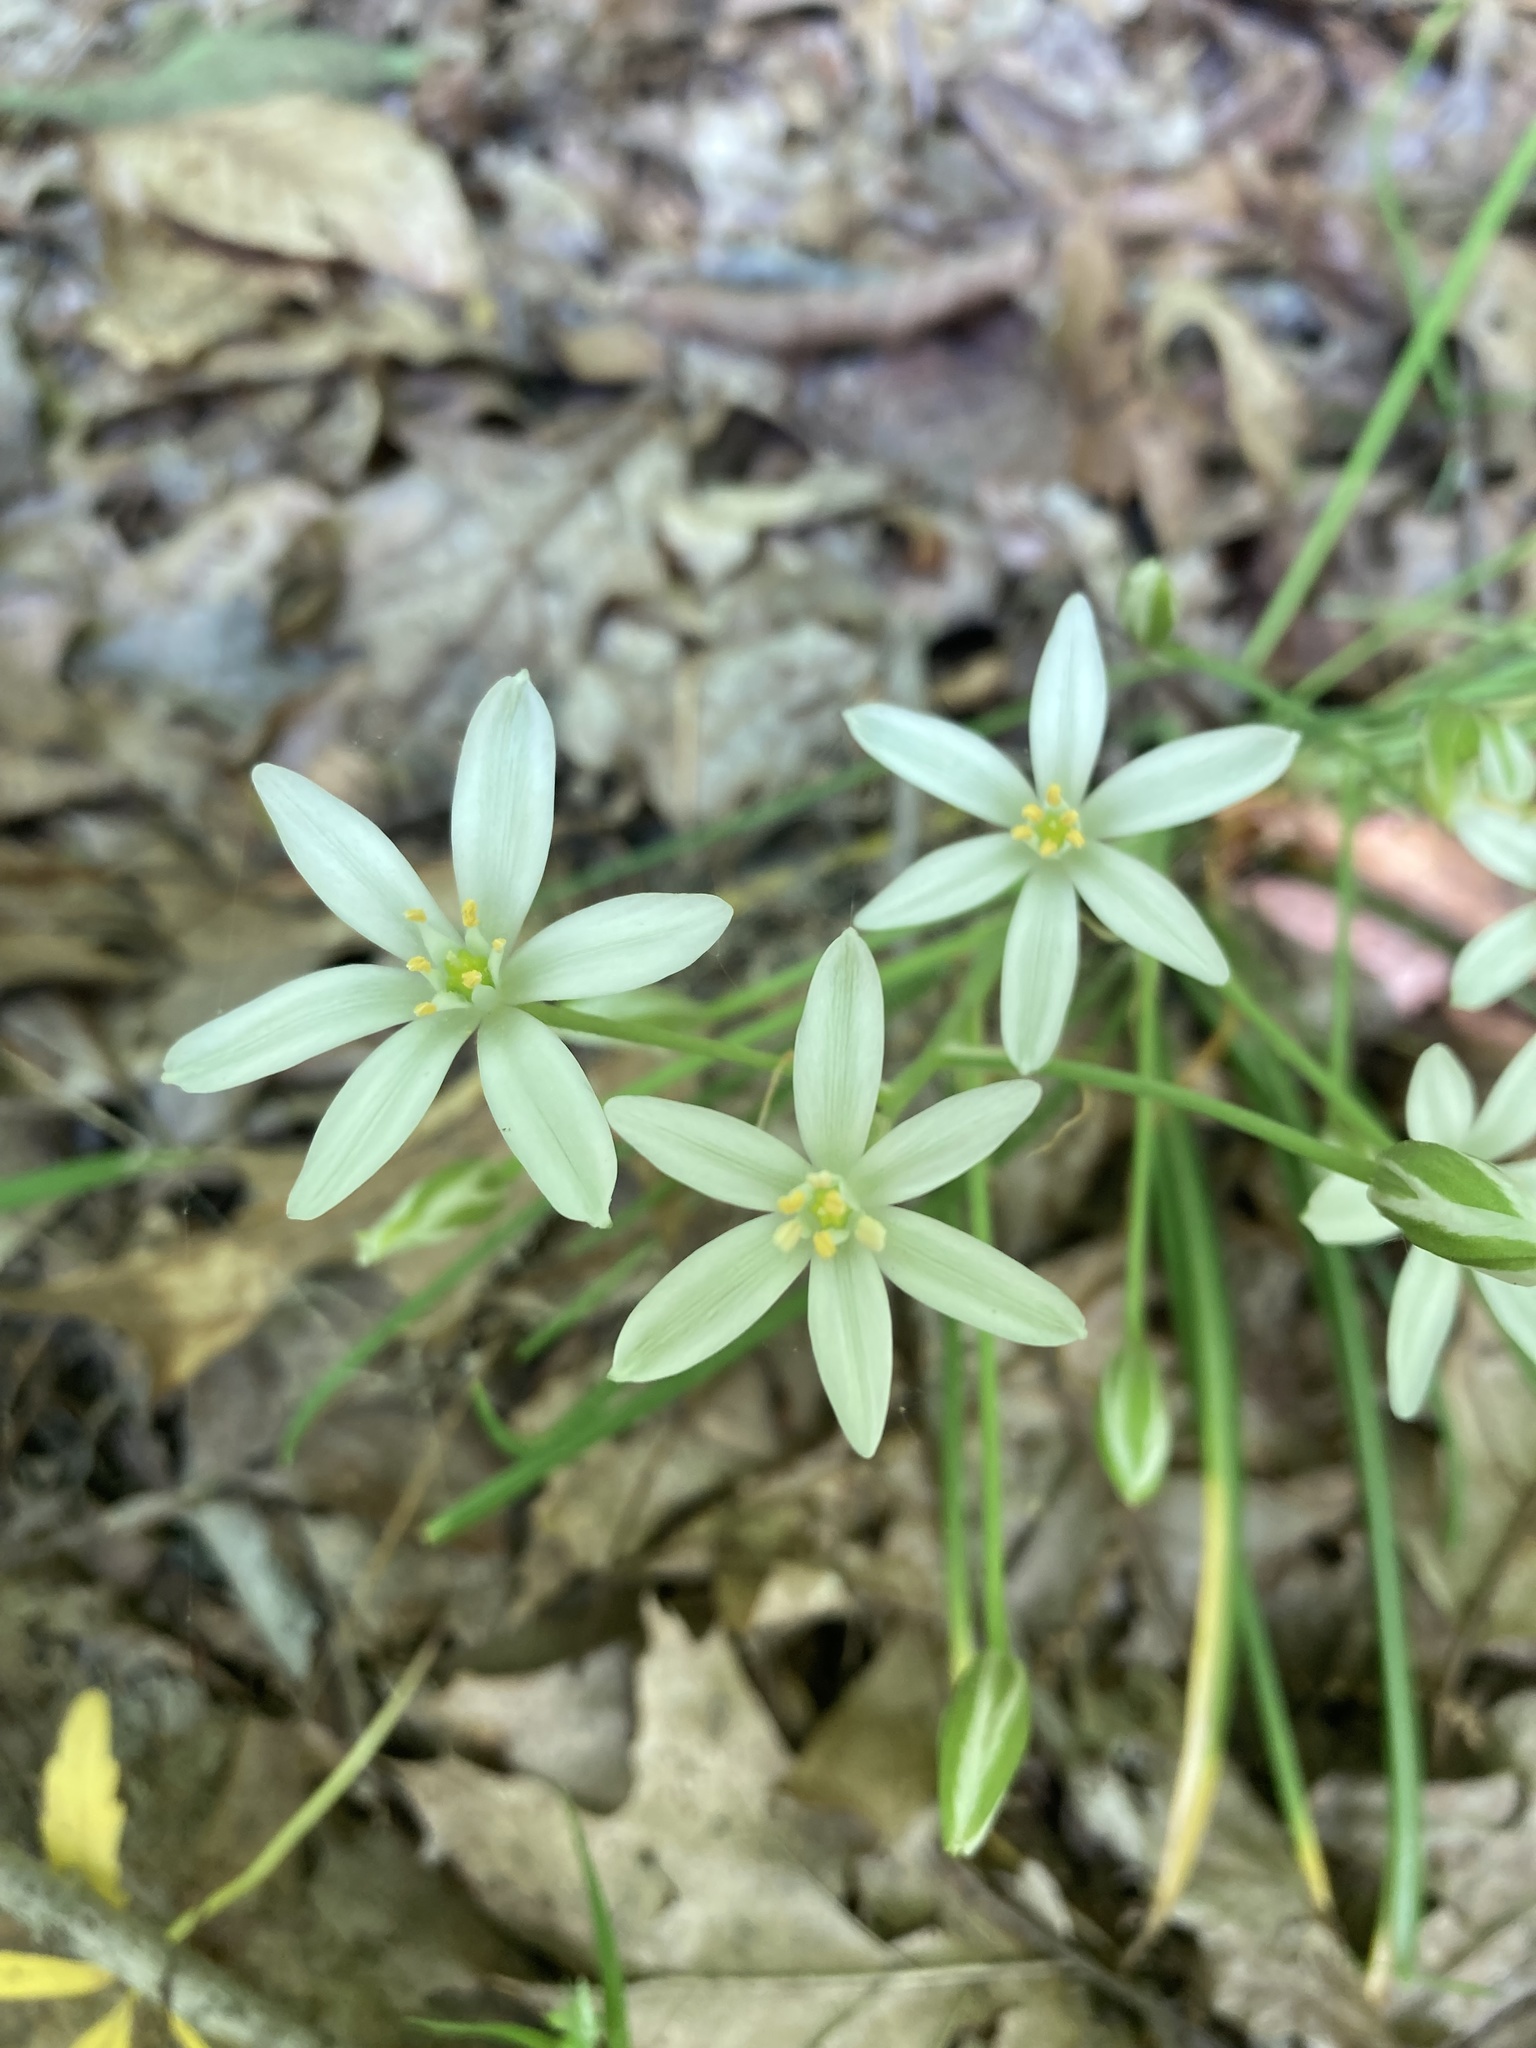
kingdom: Plantae
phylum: Tracheophyta
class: Liliopsida
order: Asparagales
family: Asparagaceae
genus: Ornithogalum
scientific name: Ornithogalum umbellatum
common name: Garden star-of-bethlehem
